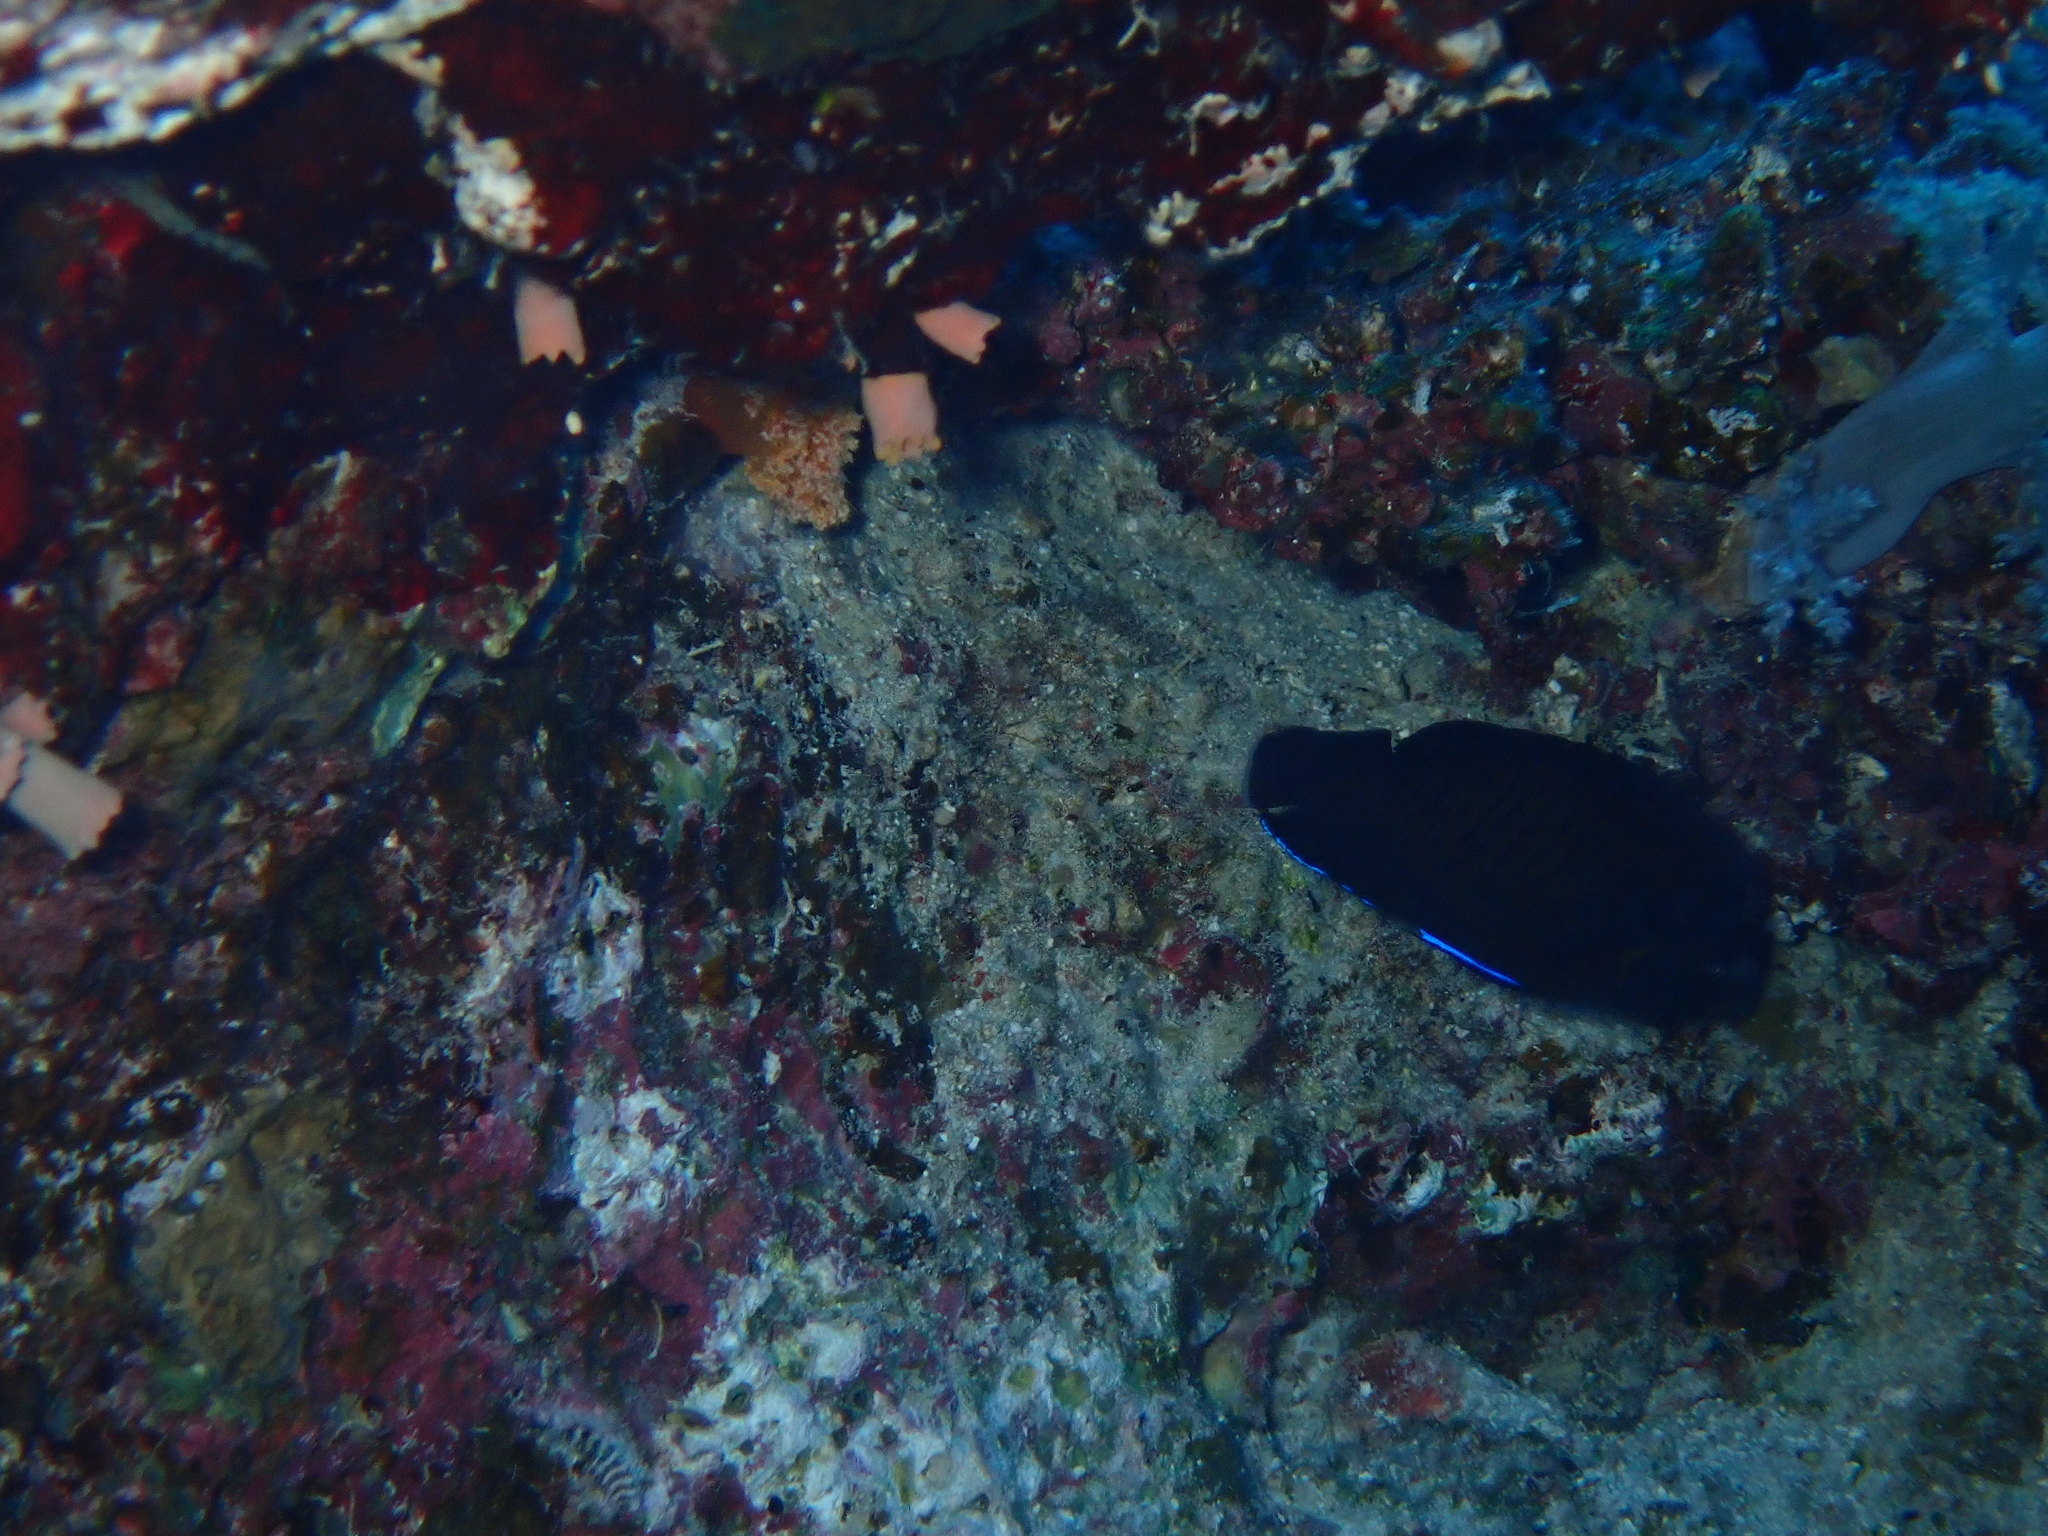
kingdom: Animalia
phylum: Chordata
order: Perciformes
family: Pomacanthidae
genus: Centropyge
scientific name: Centropyge multispinis
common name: Many-spined angelfish
